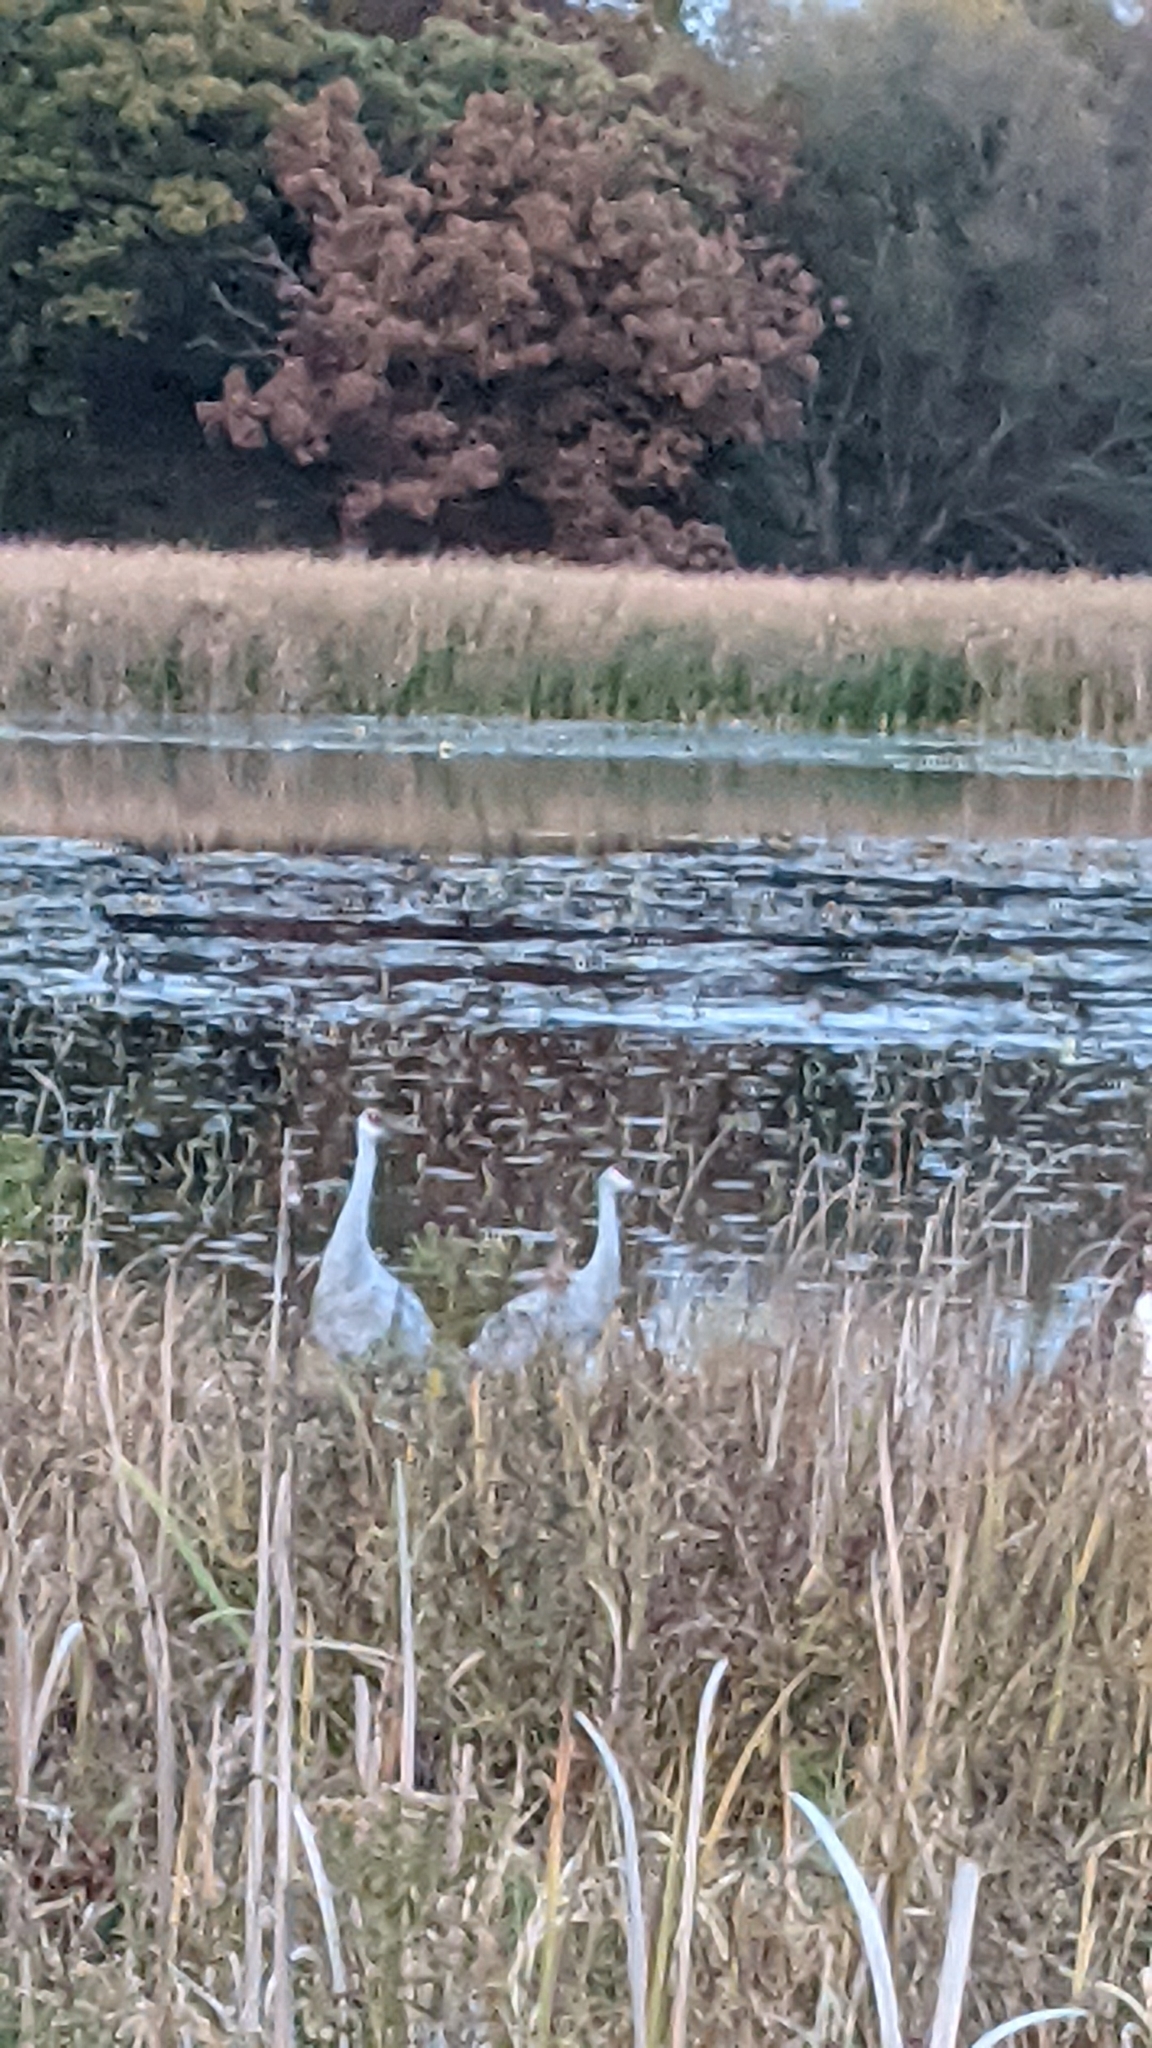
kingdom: Animalia
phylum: Chordata
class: Aves
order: Gruiformes
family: Gruidae
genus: Grus
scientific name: Grus canadensis
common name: Sandhill crane
